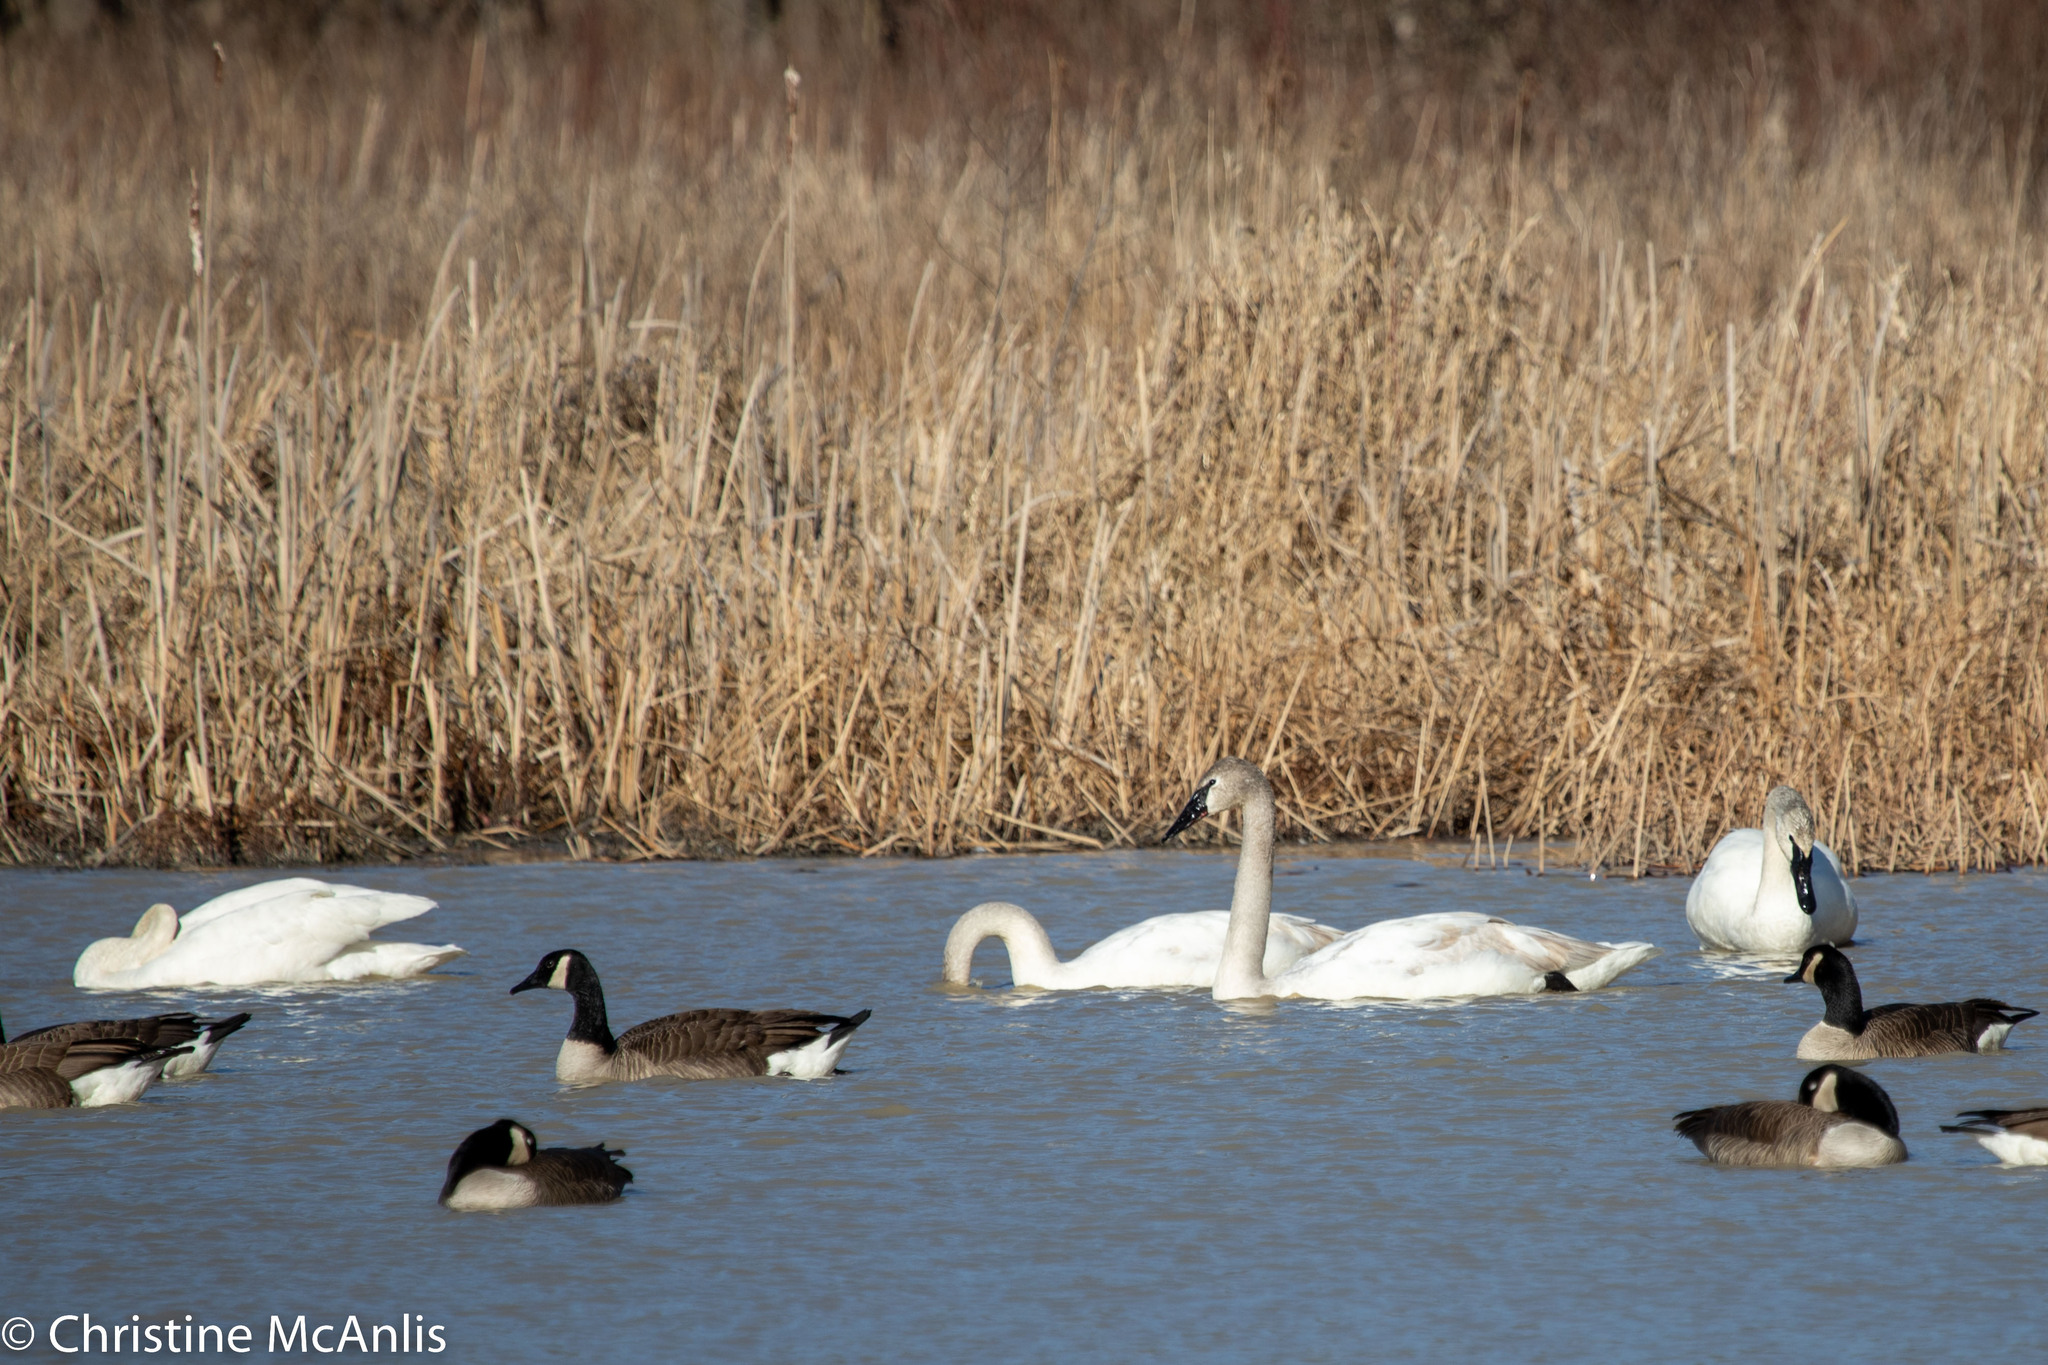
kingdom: Animalia
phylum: Chordata
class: Aves
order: Anseriformes
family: Anatidae
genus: Cygnus
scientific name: Cygnus buccinator
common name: Trumpeter swan
